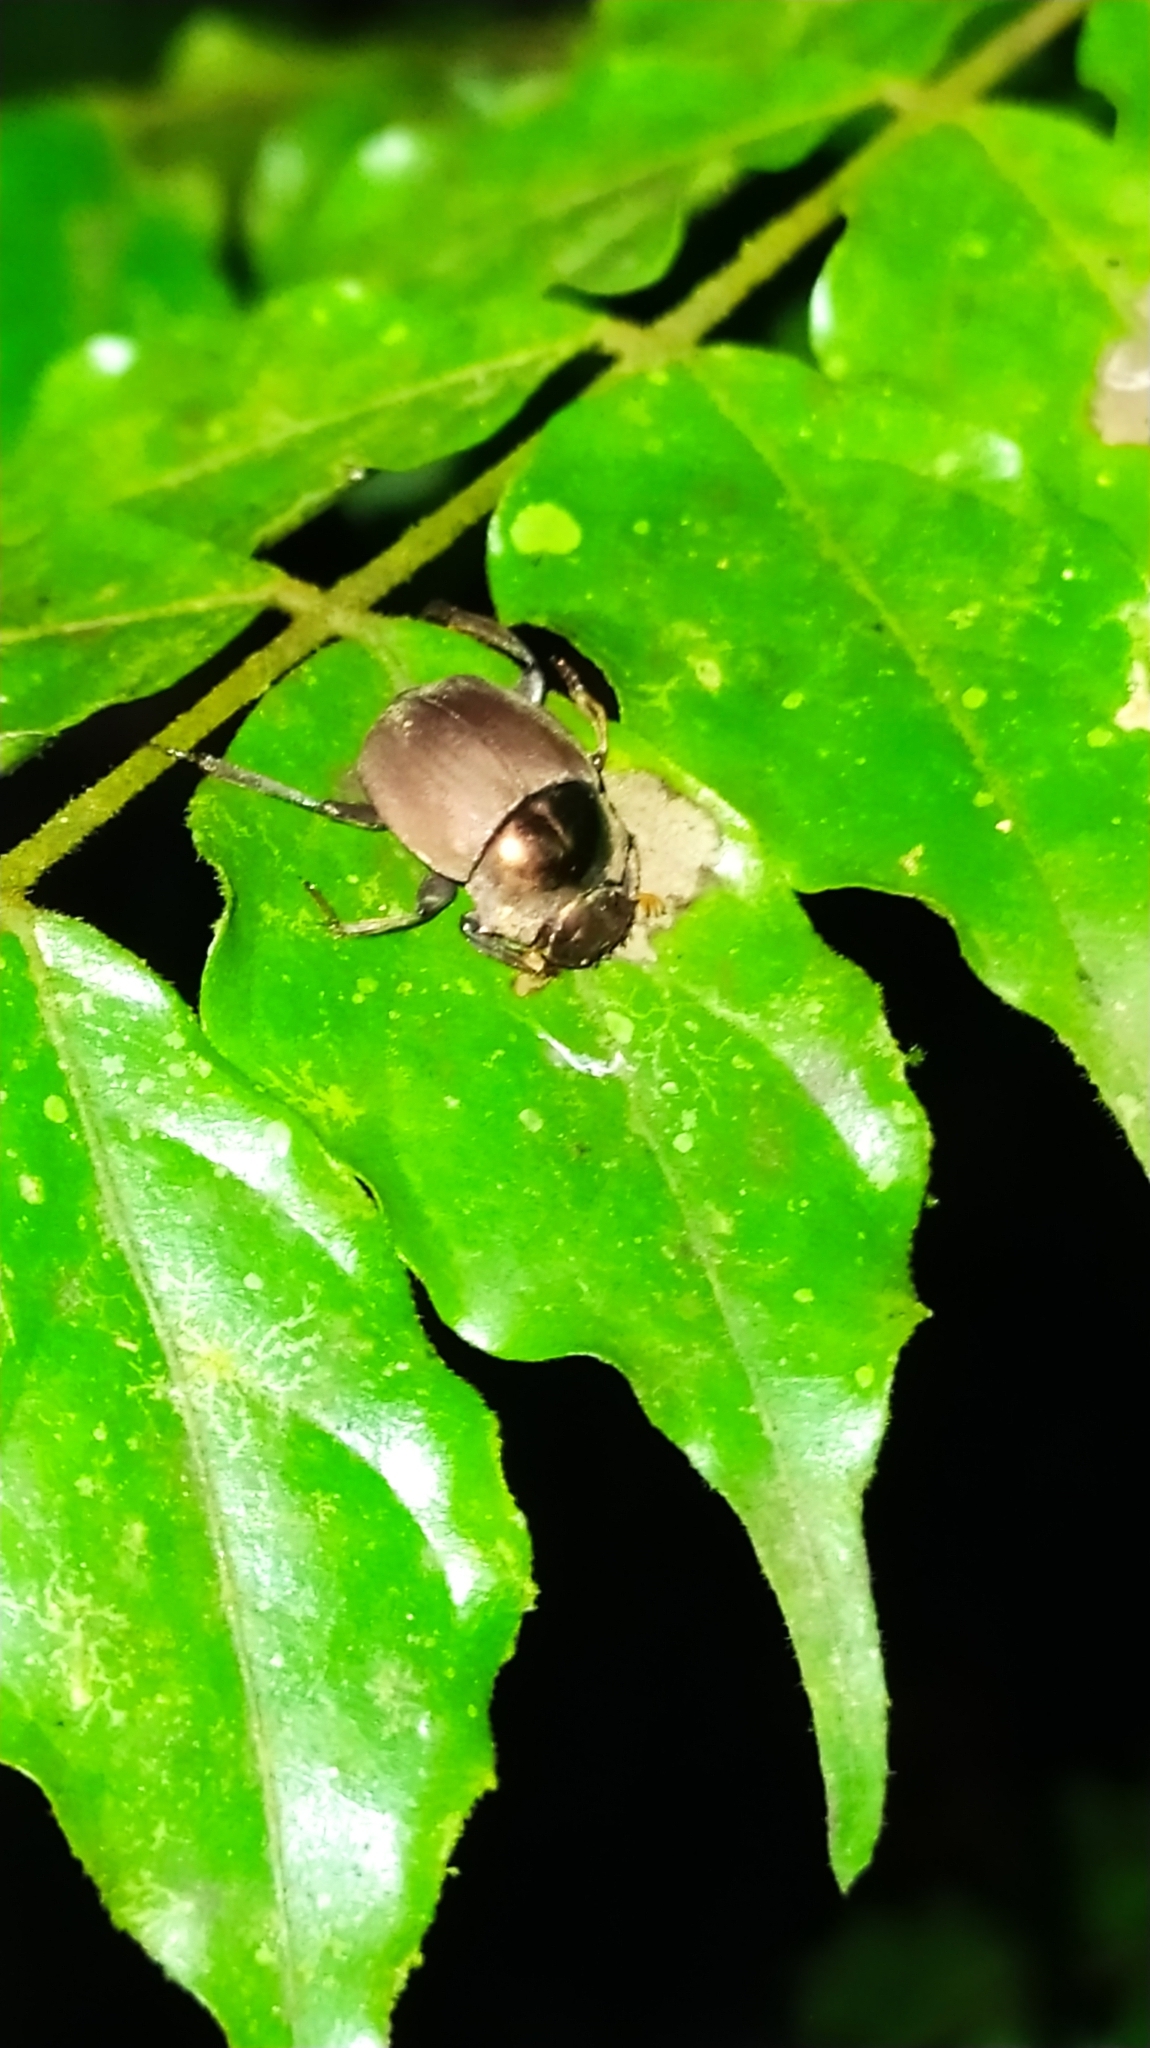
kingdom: Animalia
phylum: Arthropoda
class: Insecta
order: Coleoptera
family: Scarabaeidae
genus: Hansreia
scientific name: Hansreia affinis
